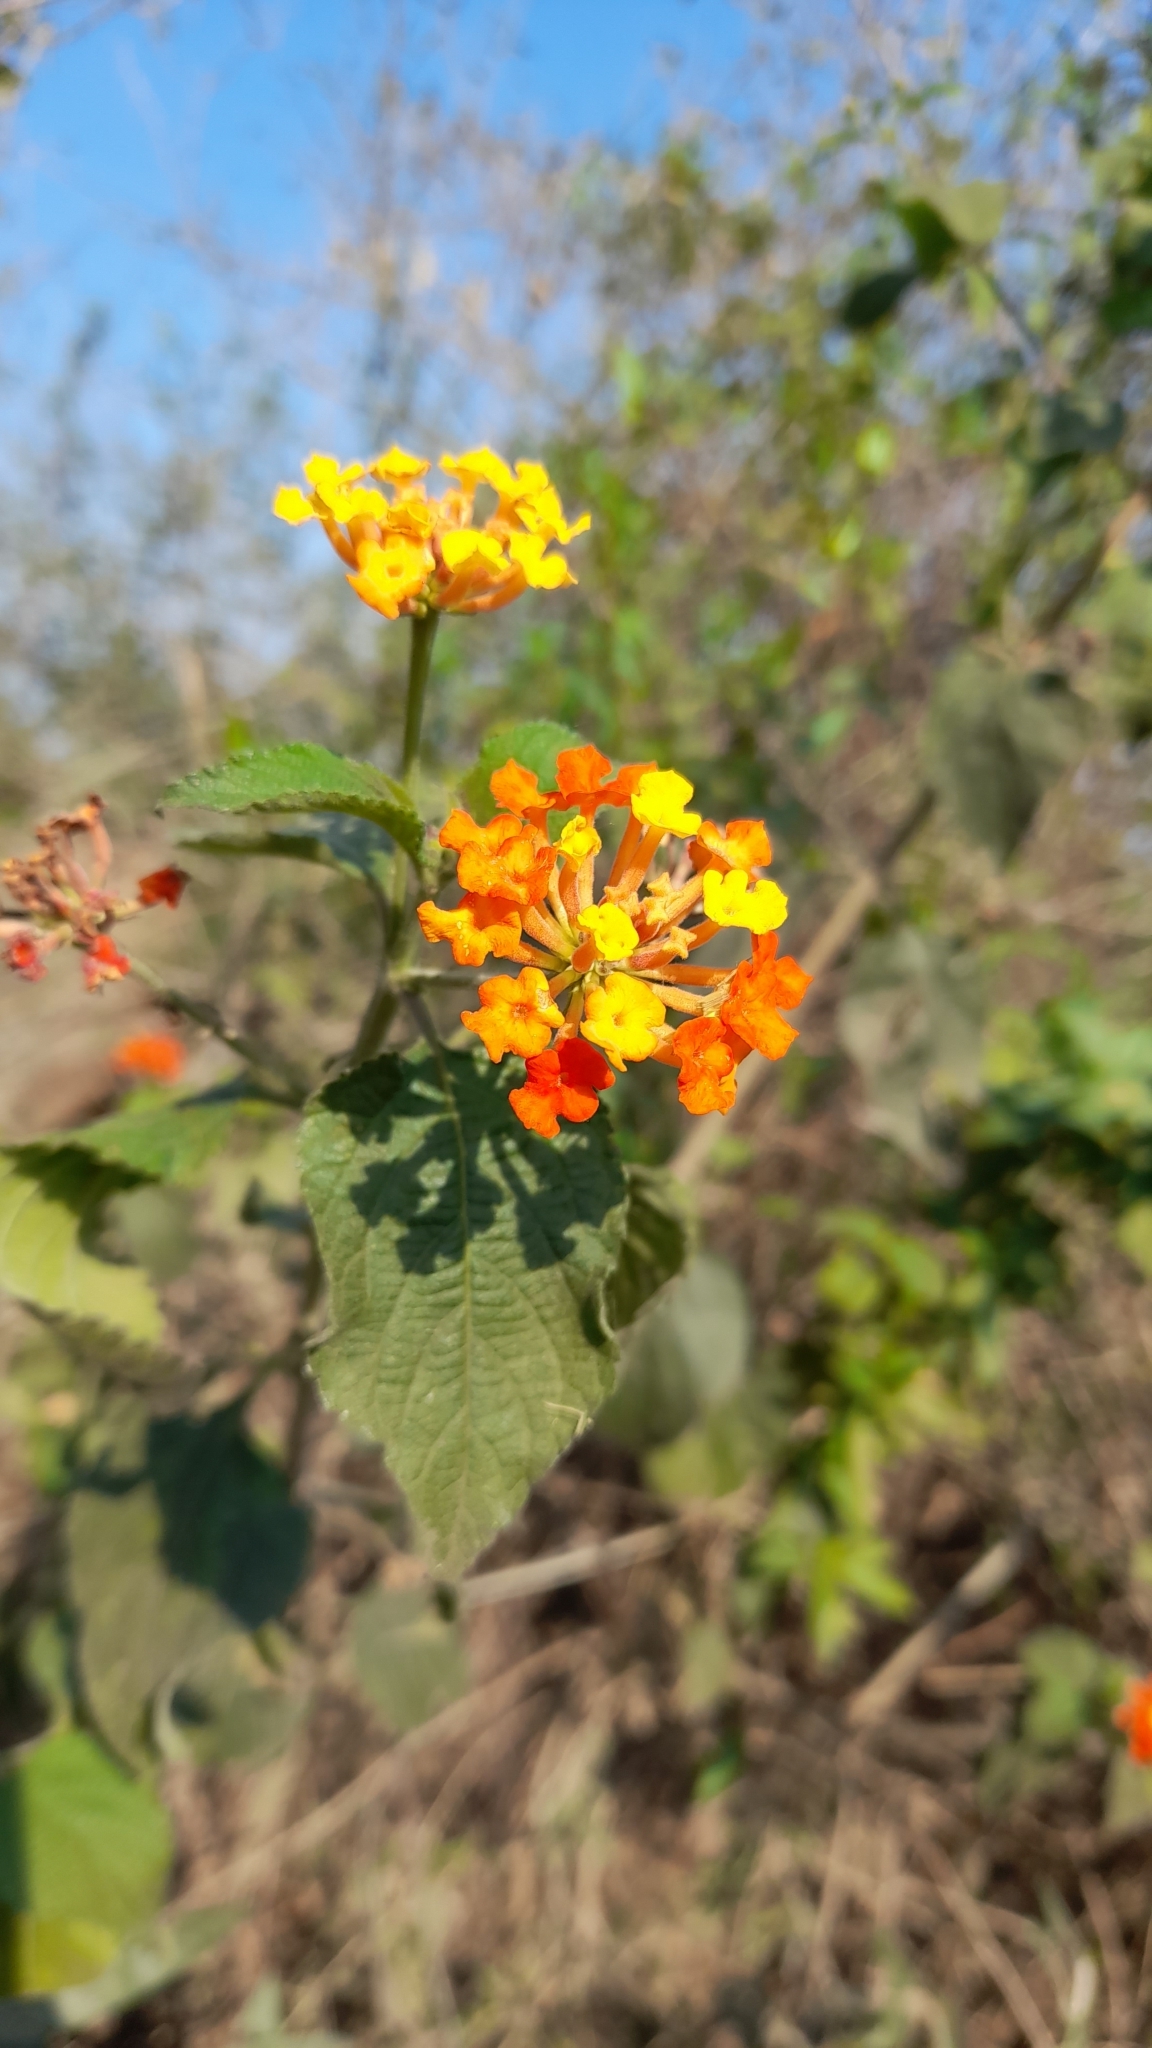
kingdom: Plantae
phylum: Tracheophyta
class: Magnoliopsida
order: Lamiales
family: Verbenaceae
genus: Lantana
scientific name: Lantana camara
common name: Lantana
